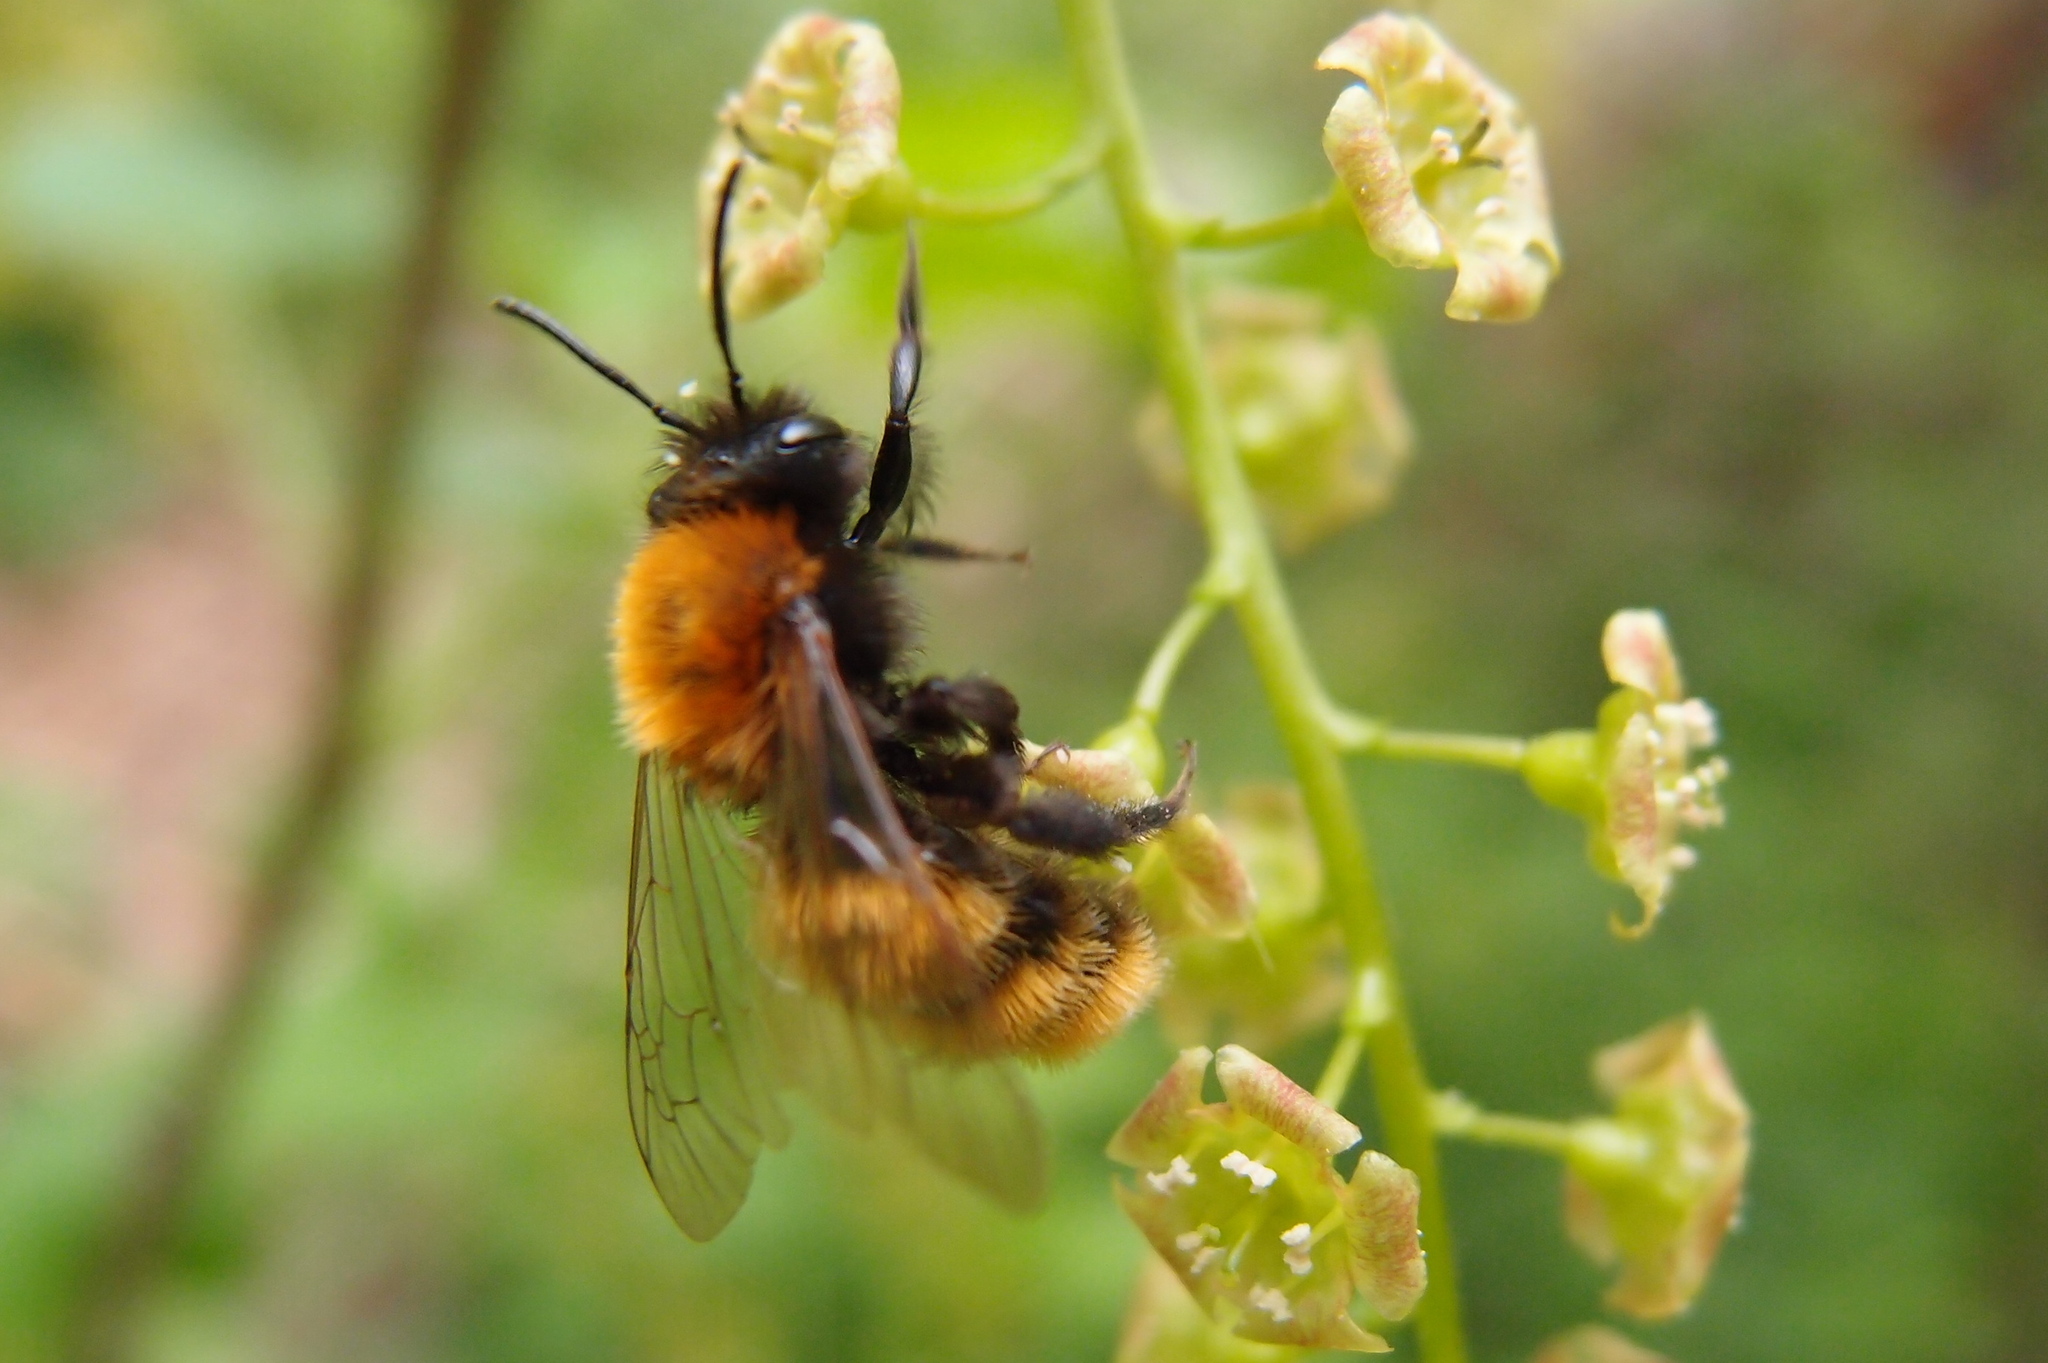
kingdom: Animalia
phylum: Arthropoda
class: Insecta
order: Hymenoptera
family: Andrenidae
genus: Andrena
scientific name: Andrena fulva
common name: Tawny mining bee
